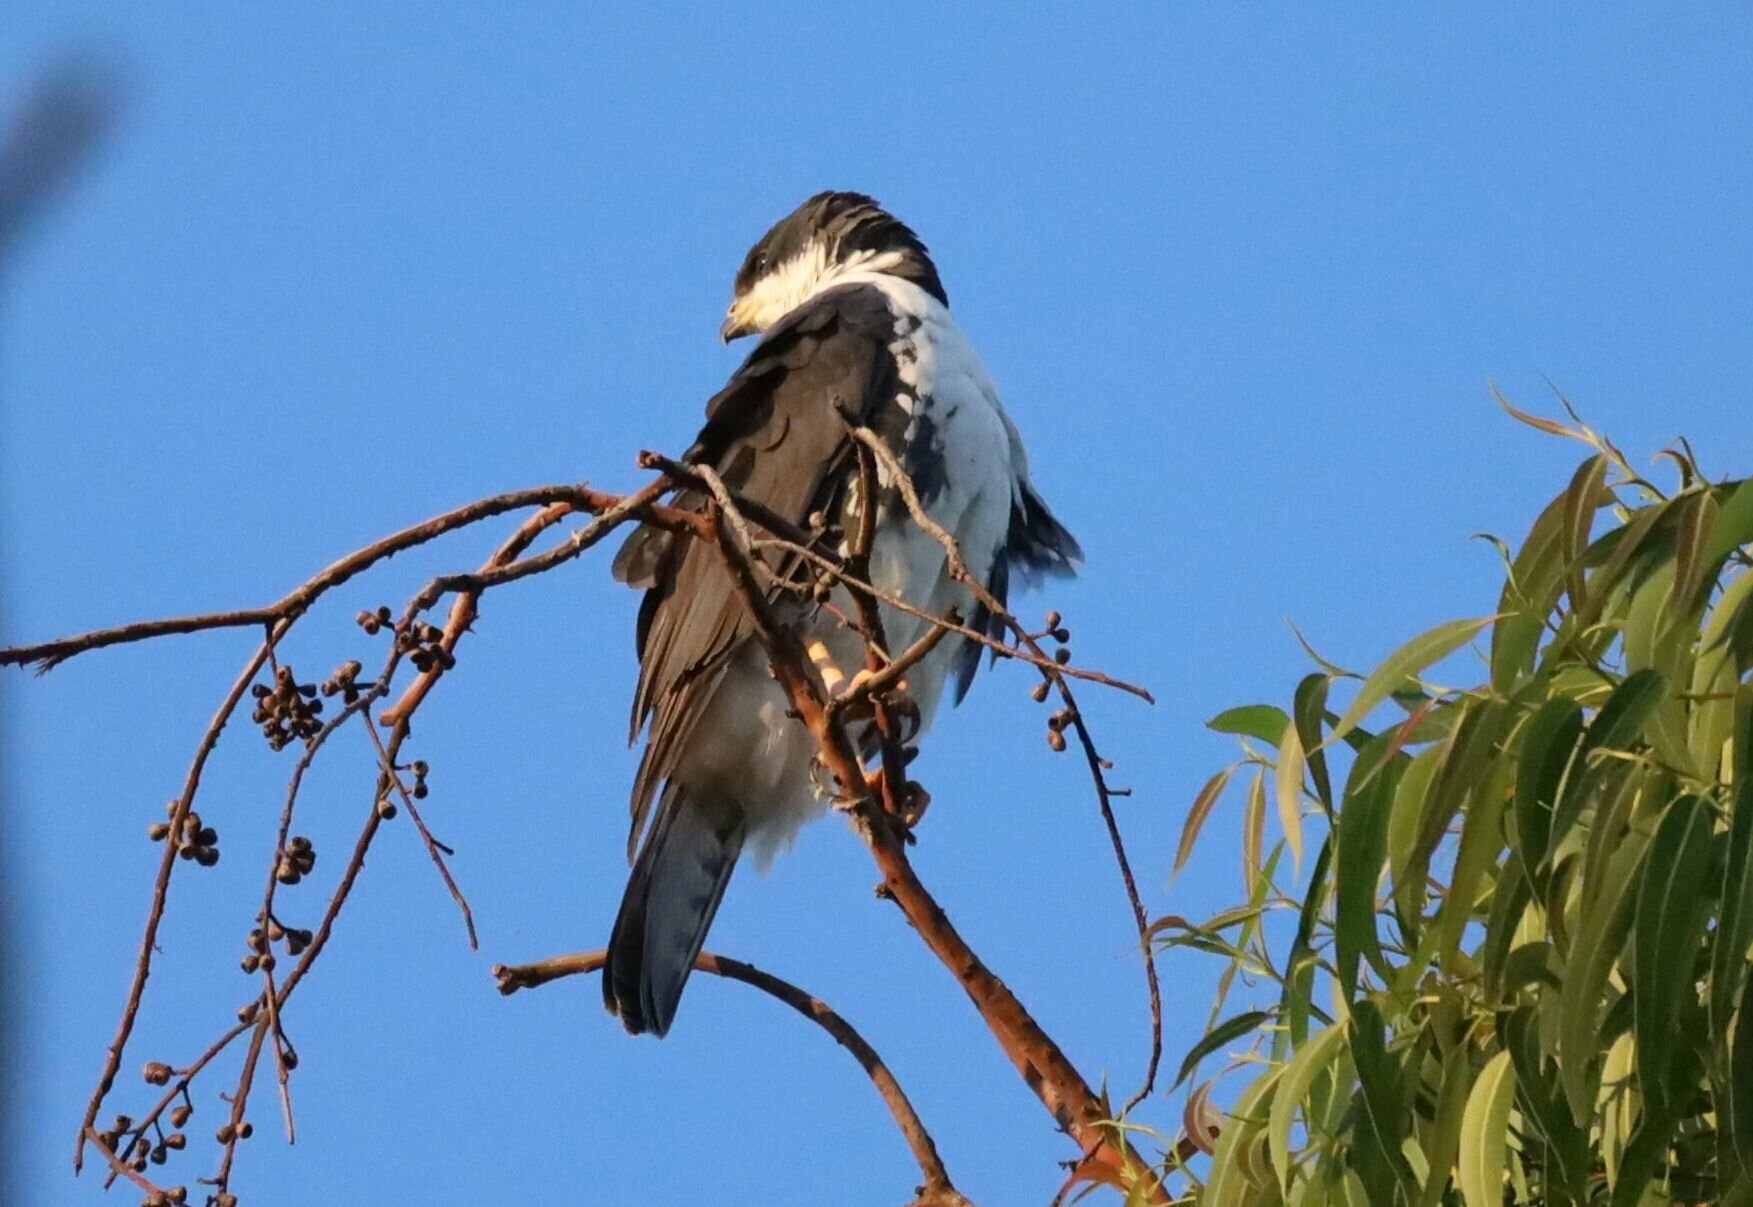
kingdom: Animalia
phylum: Chordata
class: Aves
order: Accipitriformes
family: Accipitridae
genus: Accipiter
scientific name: Accipiter melanoleucus
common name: Black sparrowhawk
